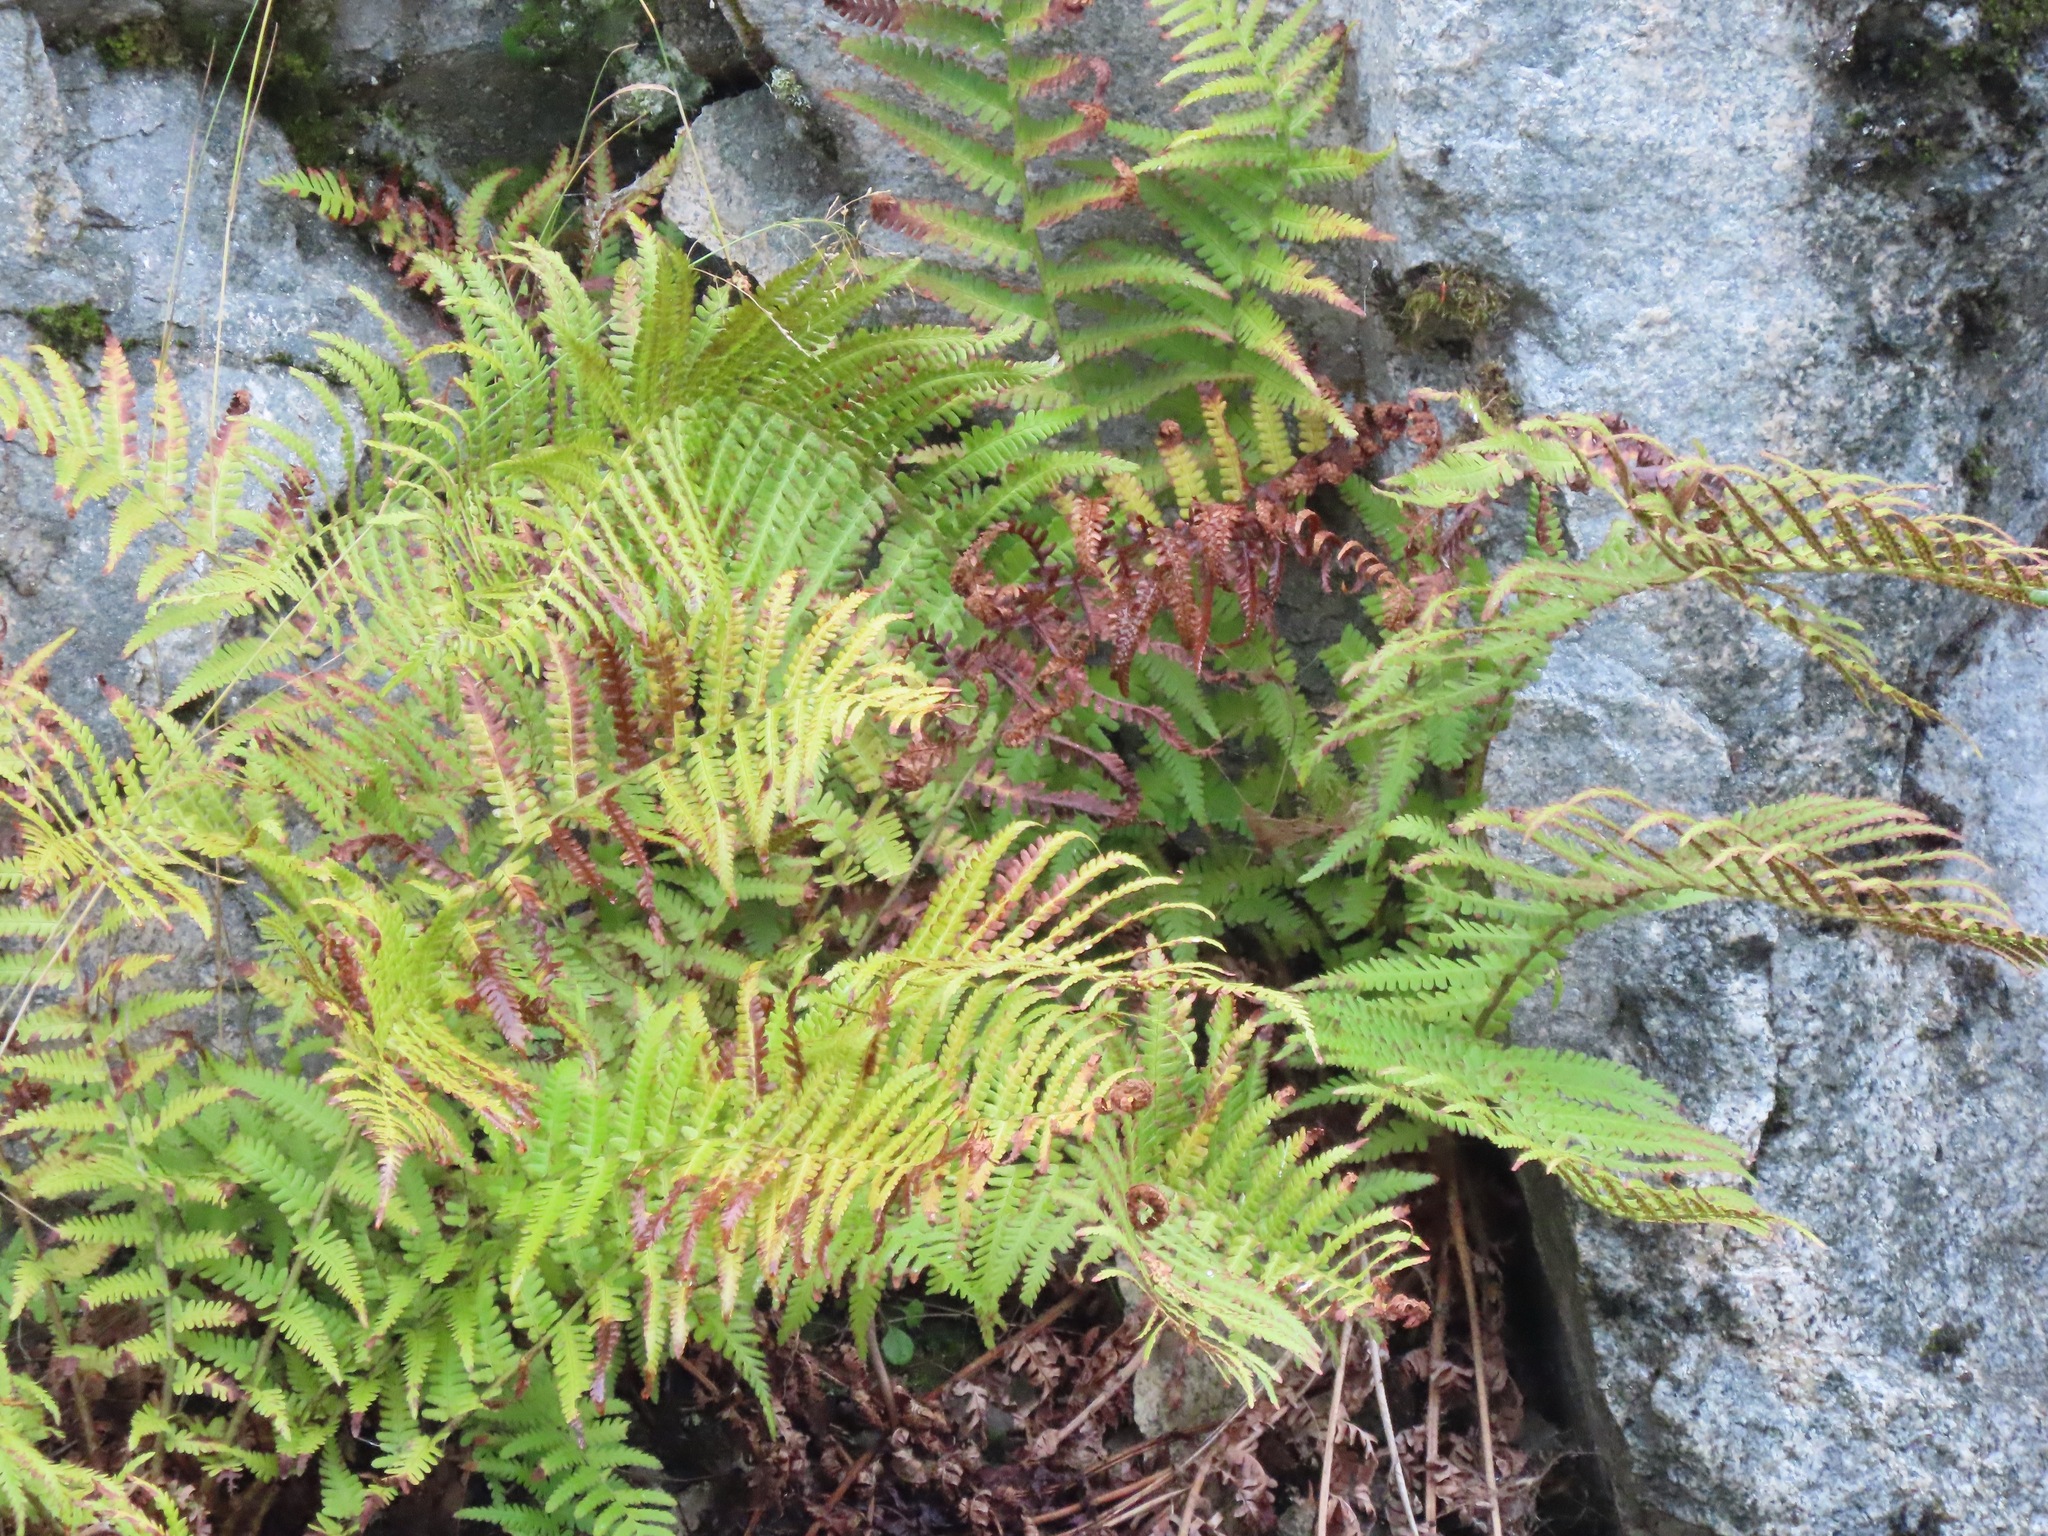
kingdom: Plantae
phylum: Tracheophyta
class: Polypodiopsida
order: Polypodiales
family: Dryopteridaceae
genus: Dryopteris
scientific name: Dryopteris filix-mas
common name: Male fern
